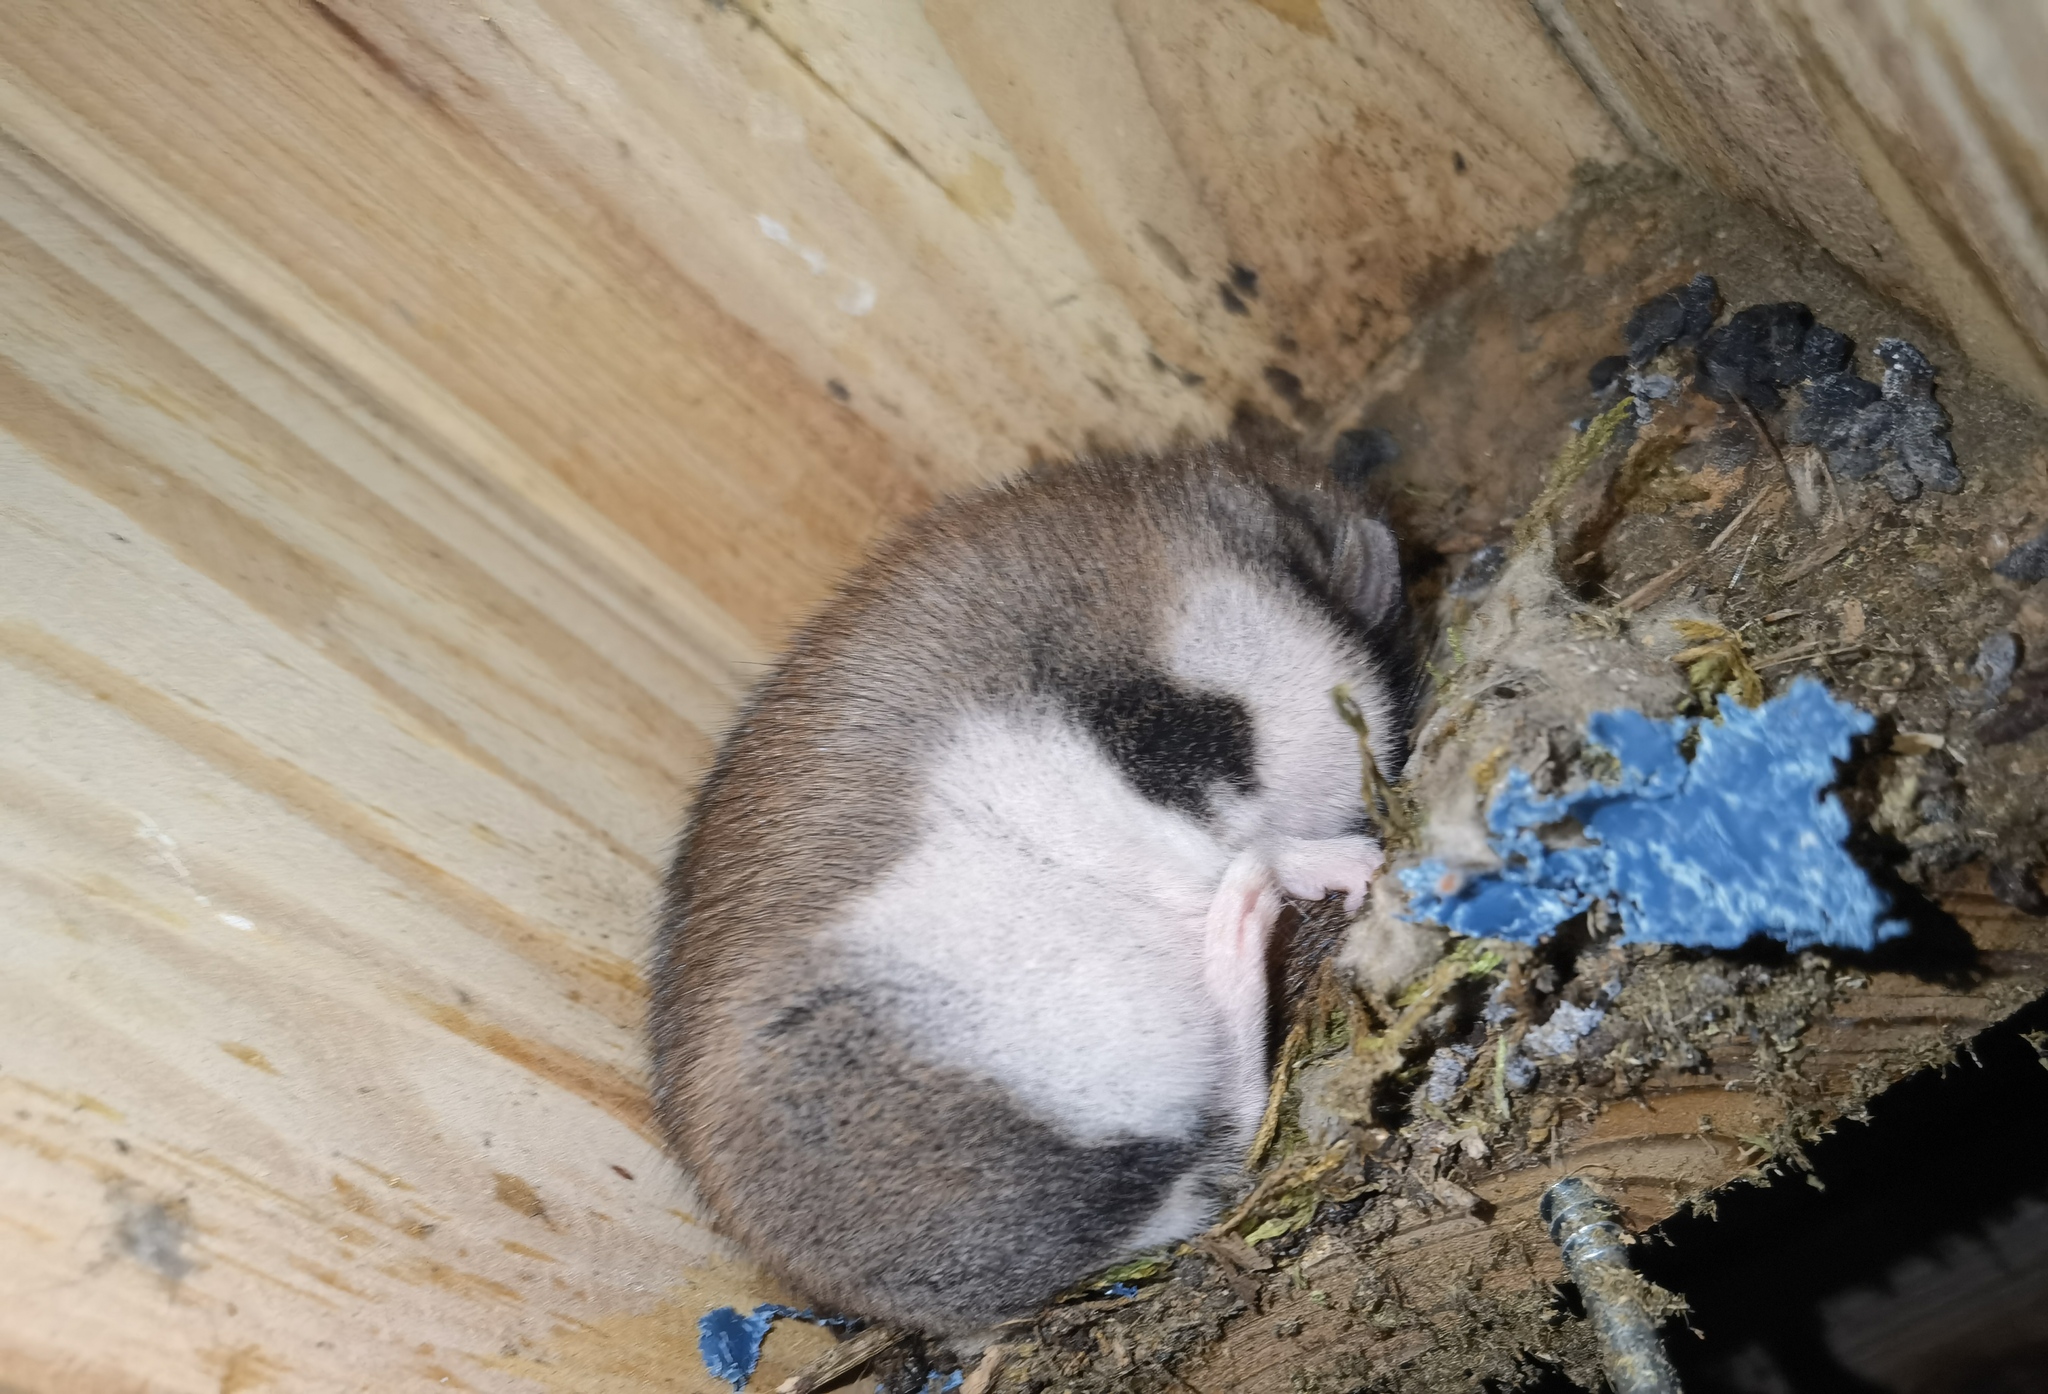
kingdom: Animalia
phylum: Chordata
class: Mammalia
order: Rodentia
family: Gliridae
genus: Eliomys
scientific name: Eliomys quercinus
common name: Garden dormouse
